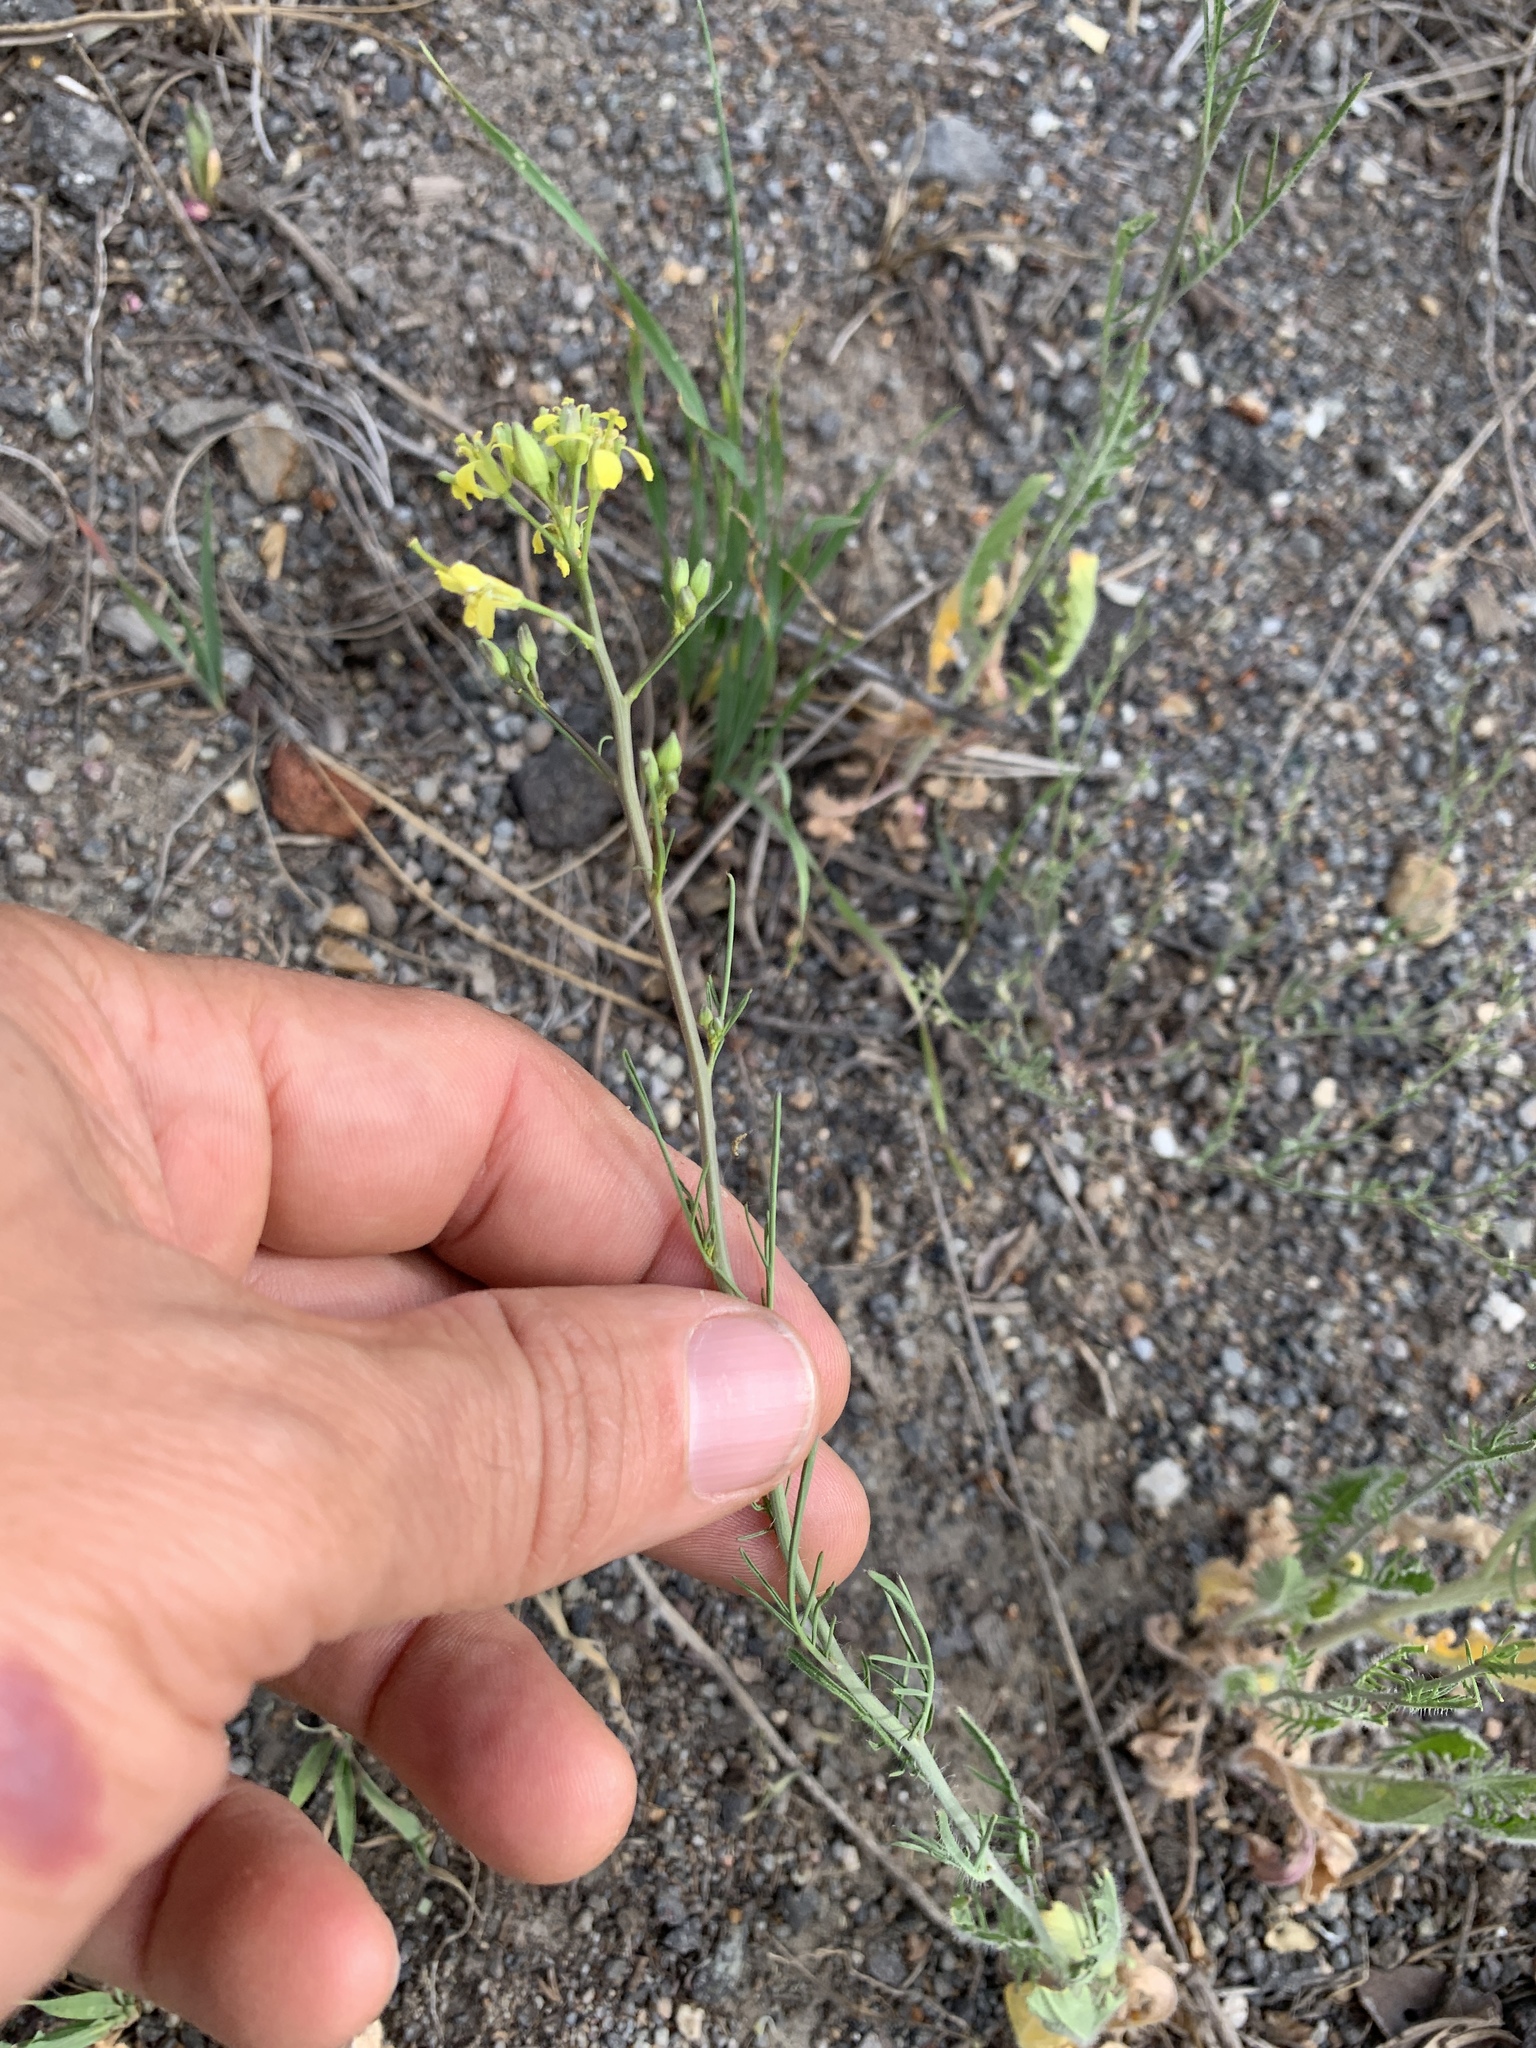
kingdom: Plantae
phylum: Tracheophyta
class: Magnoliopsida
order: Brassicales
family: Brassicaceae
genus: Sisymbrium
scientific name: Sisymbrium altissimum
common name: Tall rocket
